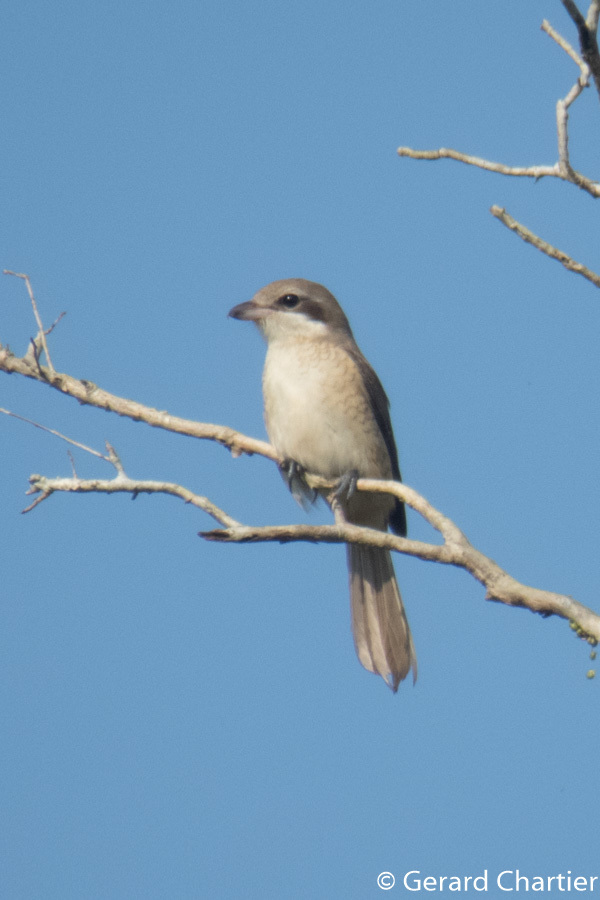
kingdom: Animalia
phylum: Chordata
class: Aves
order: Passeriformes
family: Laniidae
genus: Lanius
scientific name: Lanius cristatus
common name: Brown shrike
